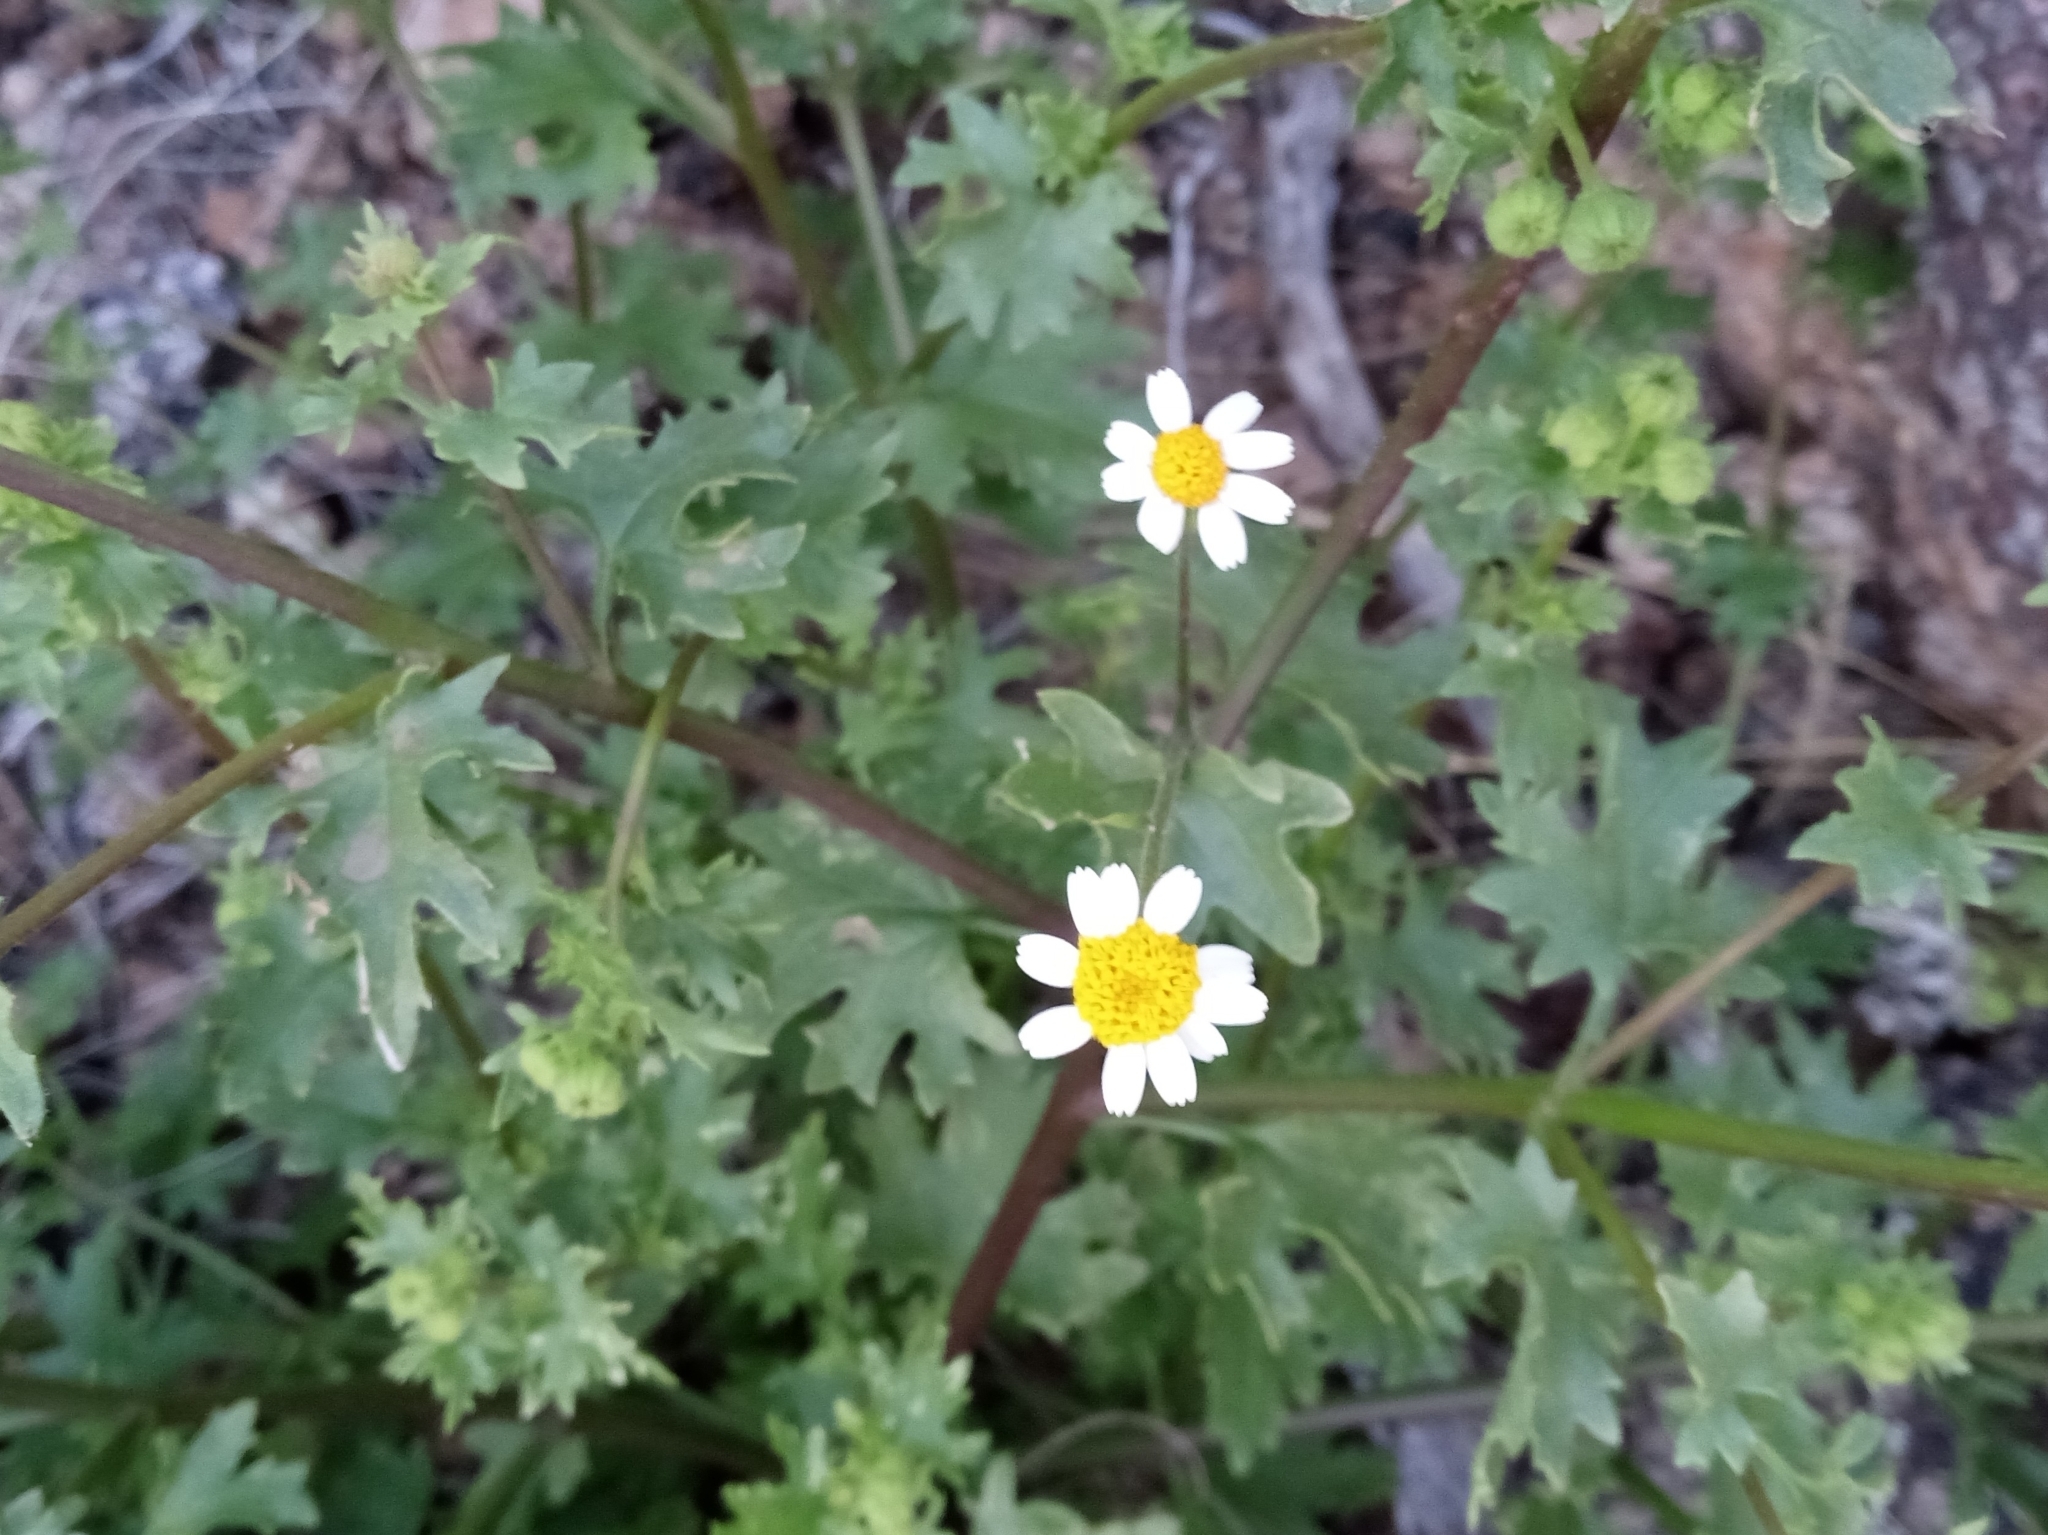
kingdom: Plantae
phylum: Tracheophyta
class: Magnoliopsida
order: Asterales
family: Asteraceae
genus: Laphamia
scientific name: Laphamia emoryi
